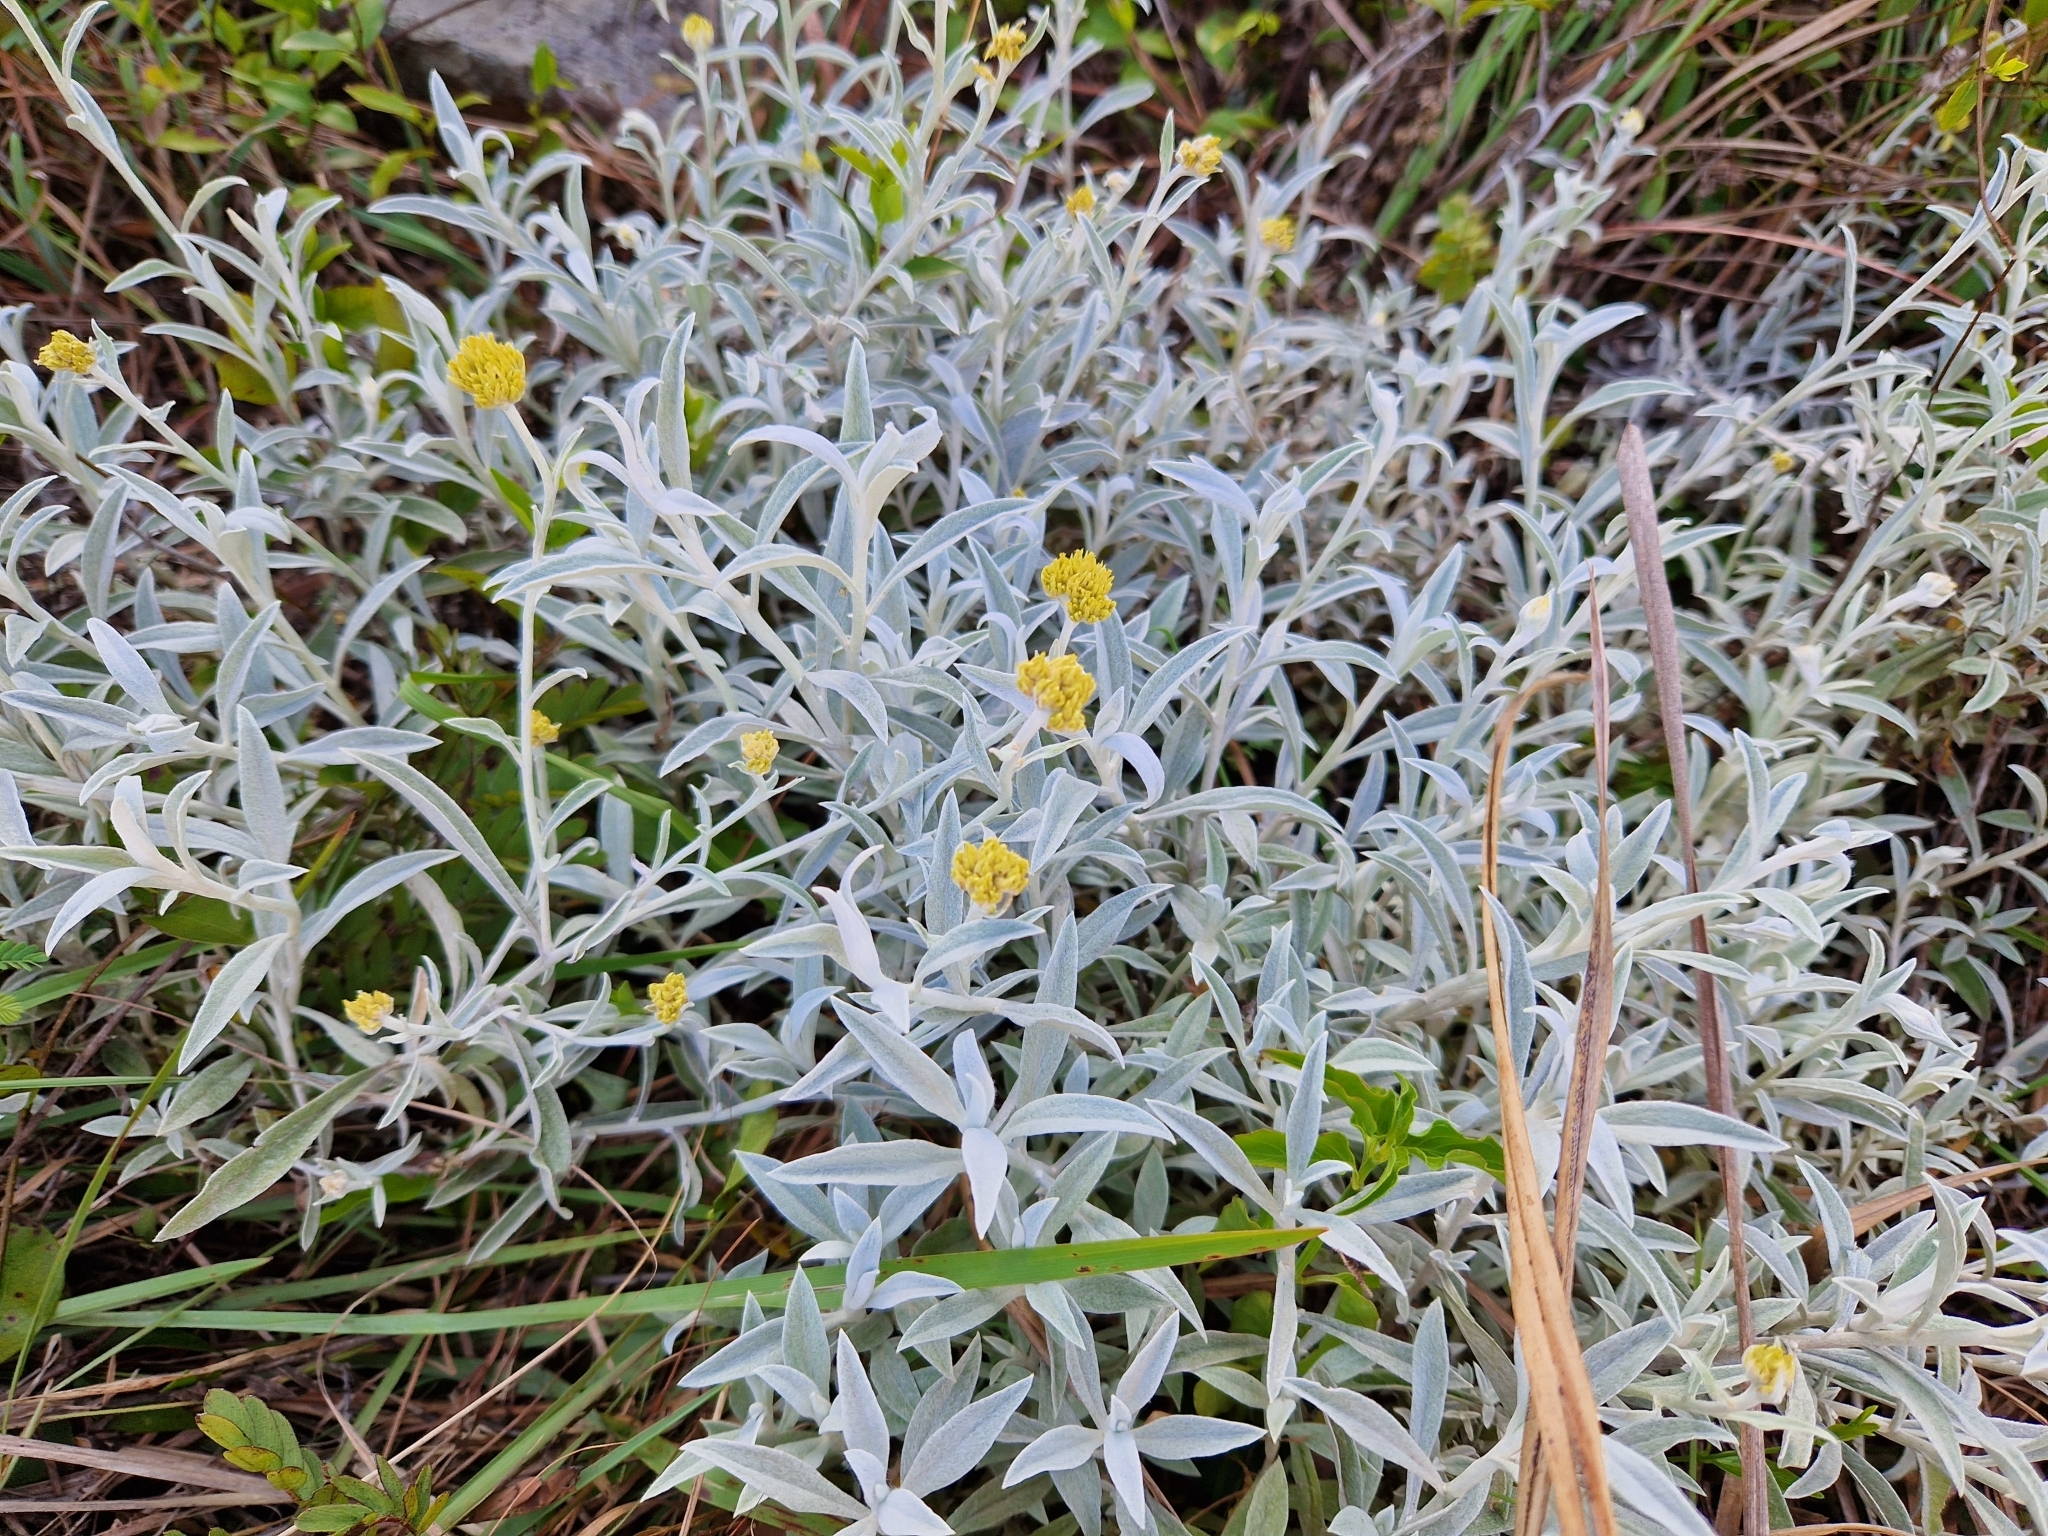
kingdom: Plantae
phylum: Tracheophyta
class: Magnoliopsida
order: Asterales
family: Asteraceae
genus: Achyrocline
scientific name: Achyrocline satureioides
